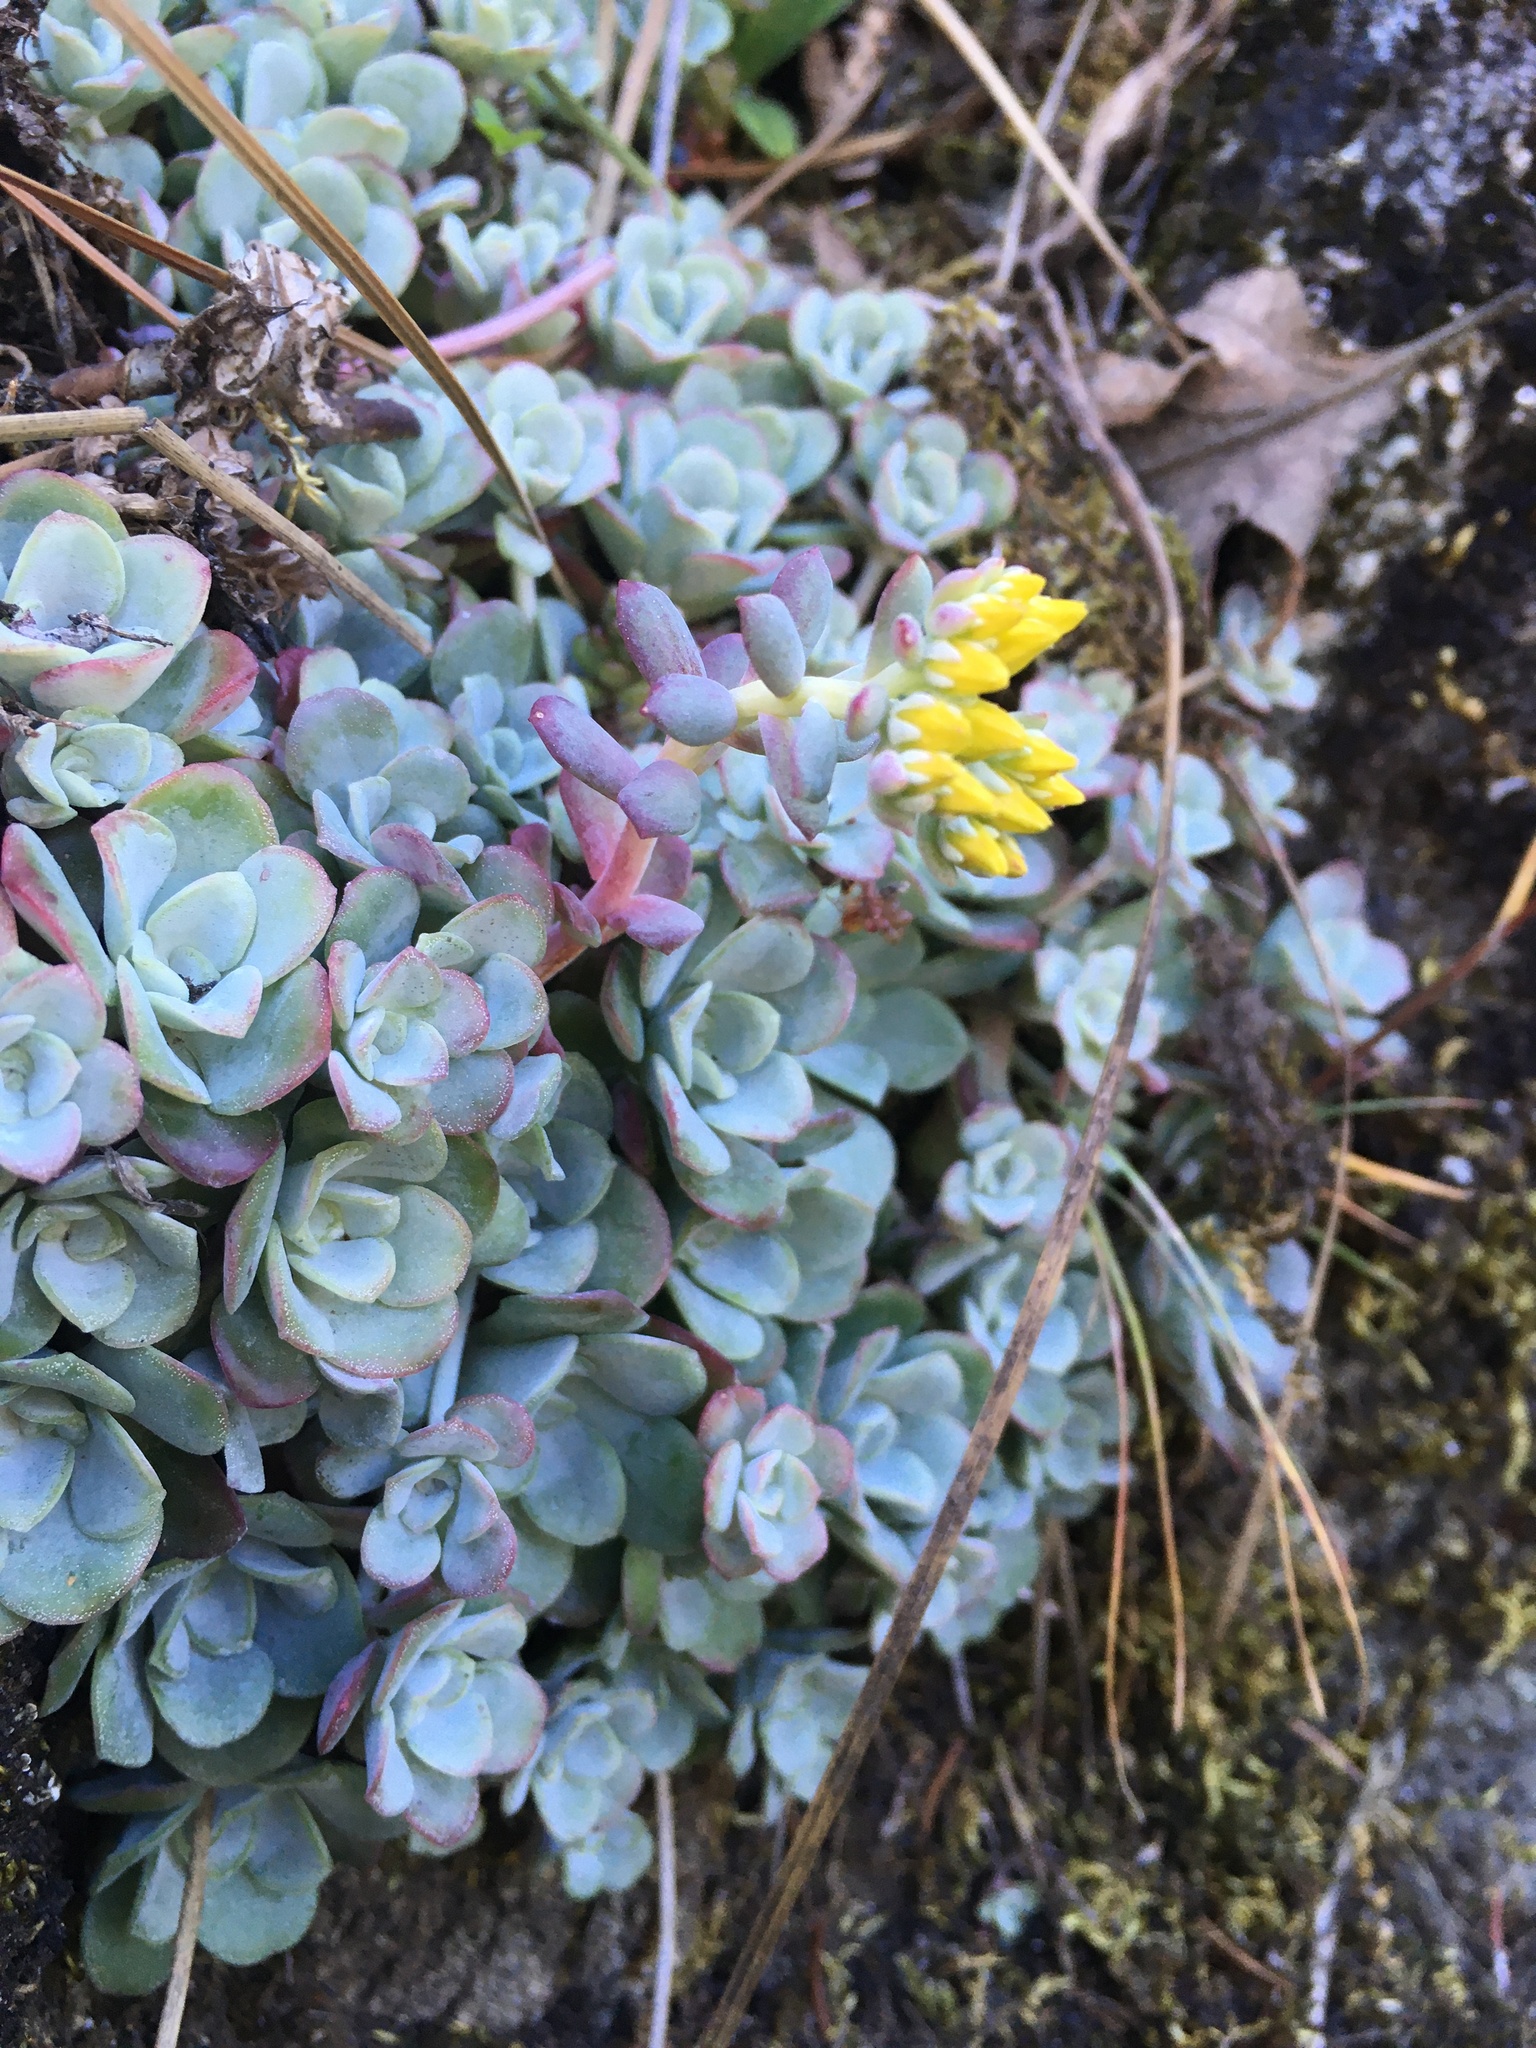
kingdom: Plantae
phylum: Tracheophyta
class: Magnoliopsida
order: Saxifragales
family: Crassulaceae
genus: Sedum
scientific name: Sedum spathulifolium
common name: Colorado stonecrop
